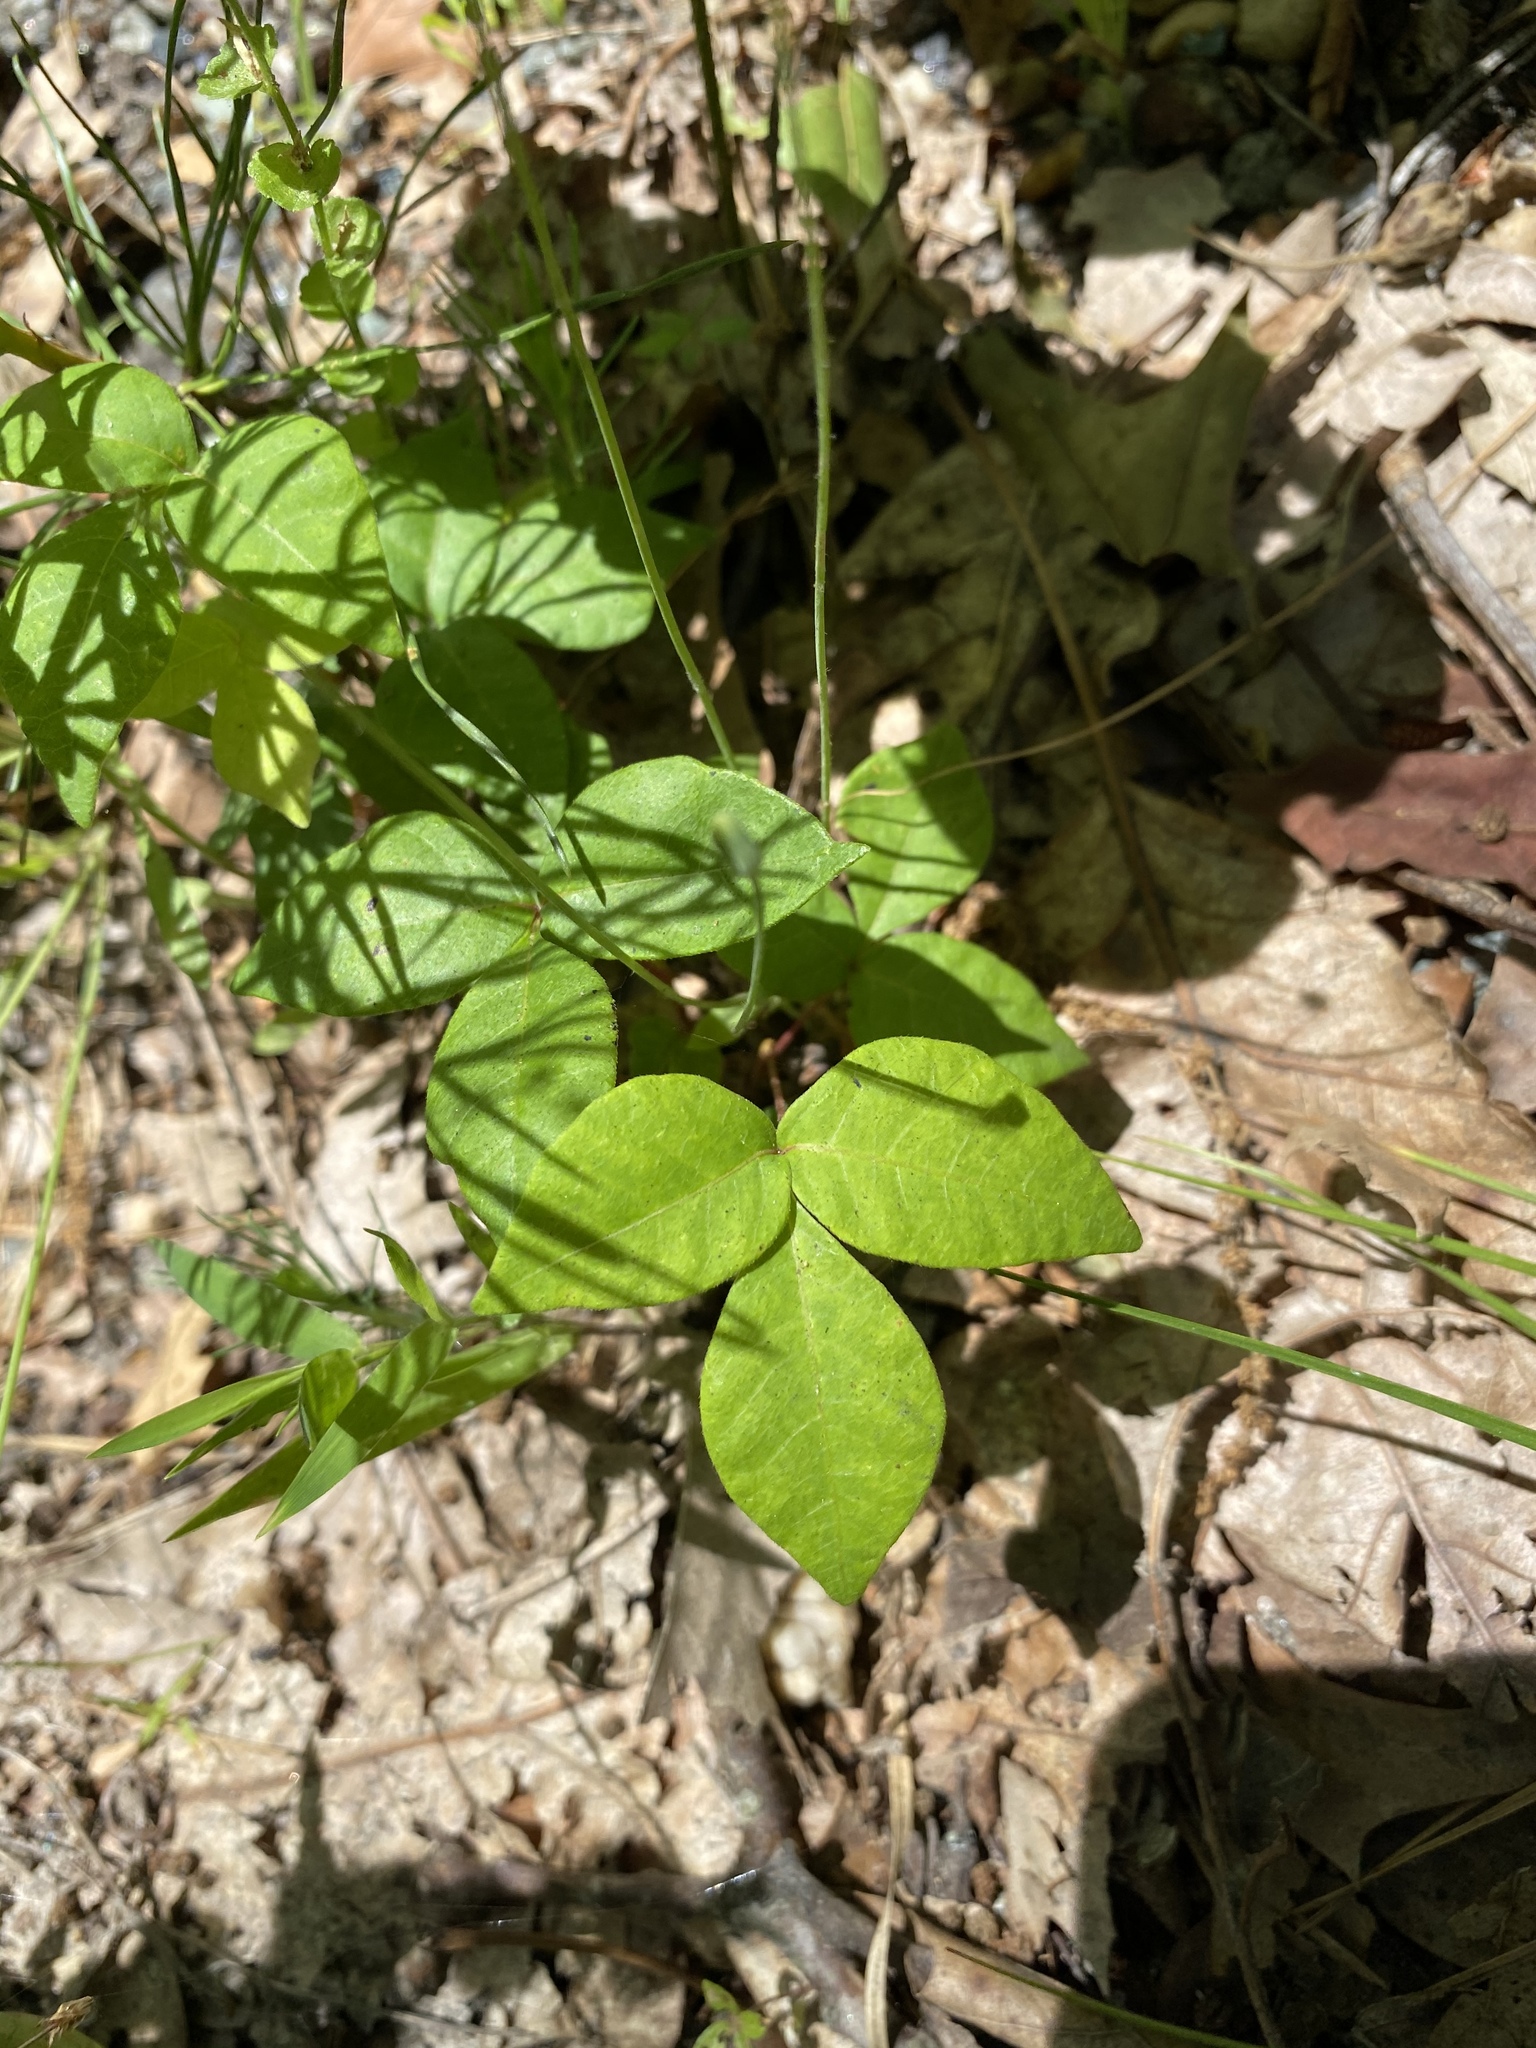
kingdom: Plantae
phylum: Tracheophyta
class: Magnoliopsida
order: Sapindales
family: Anacardiaceae
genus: Toxicodendron
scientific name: Toxicodendron radicans
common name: Poison ivy
